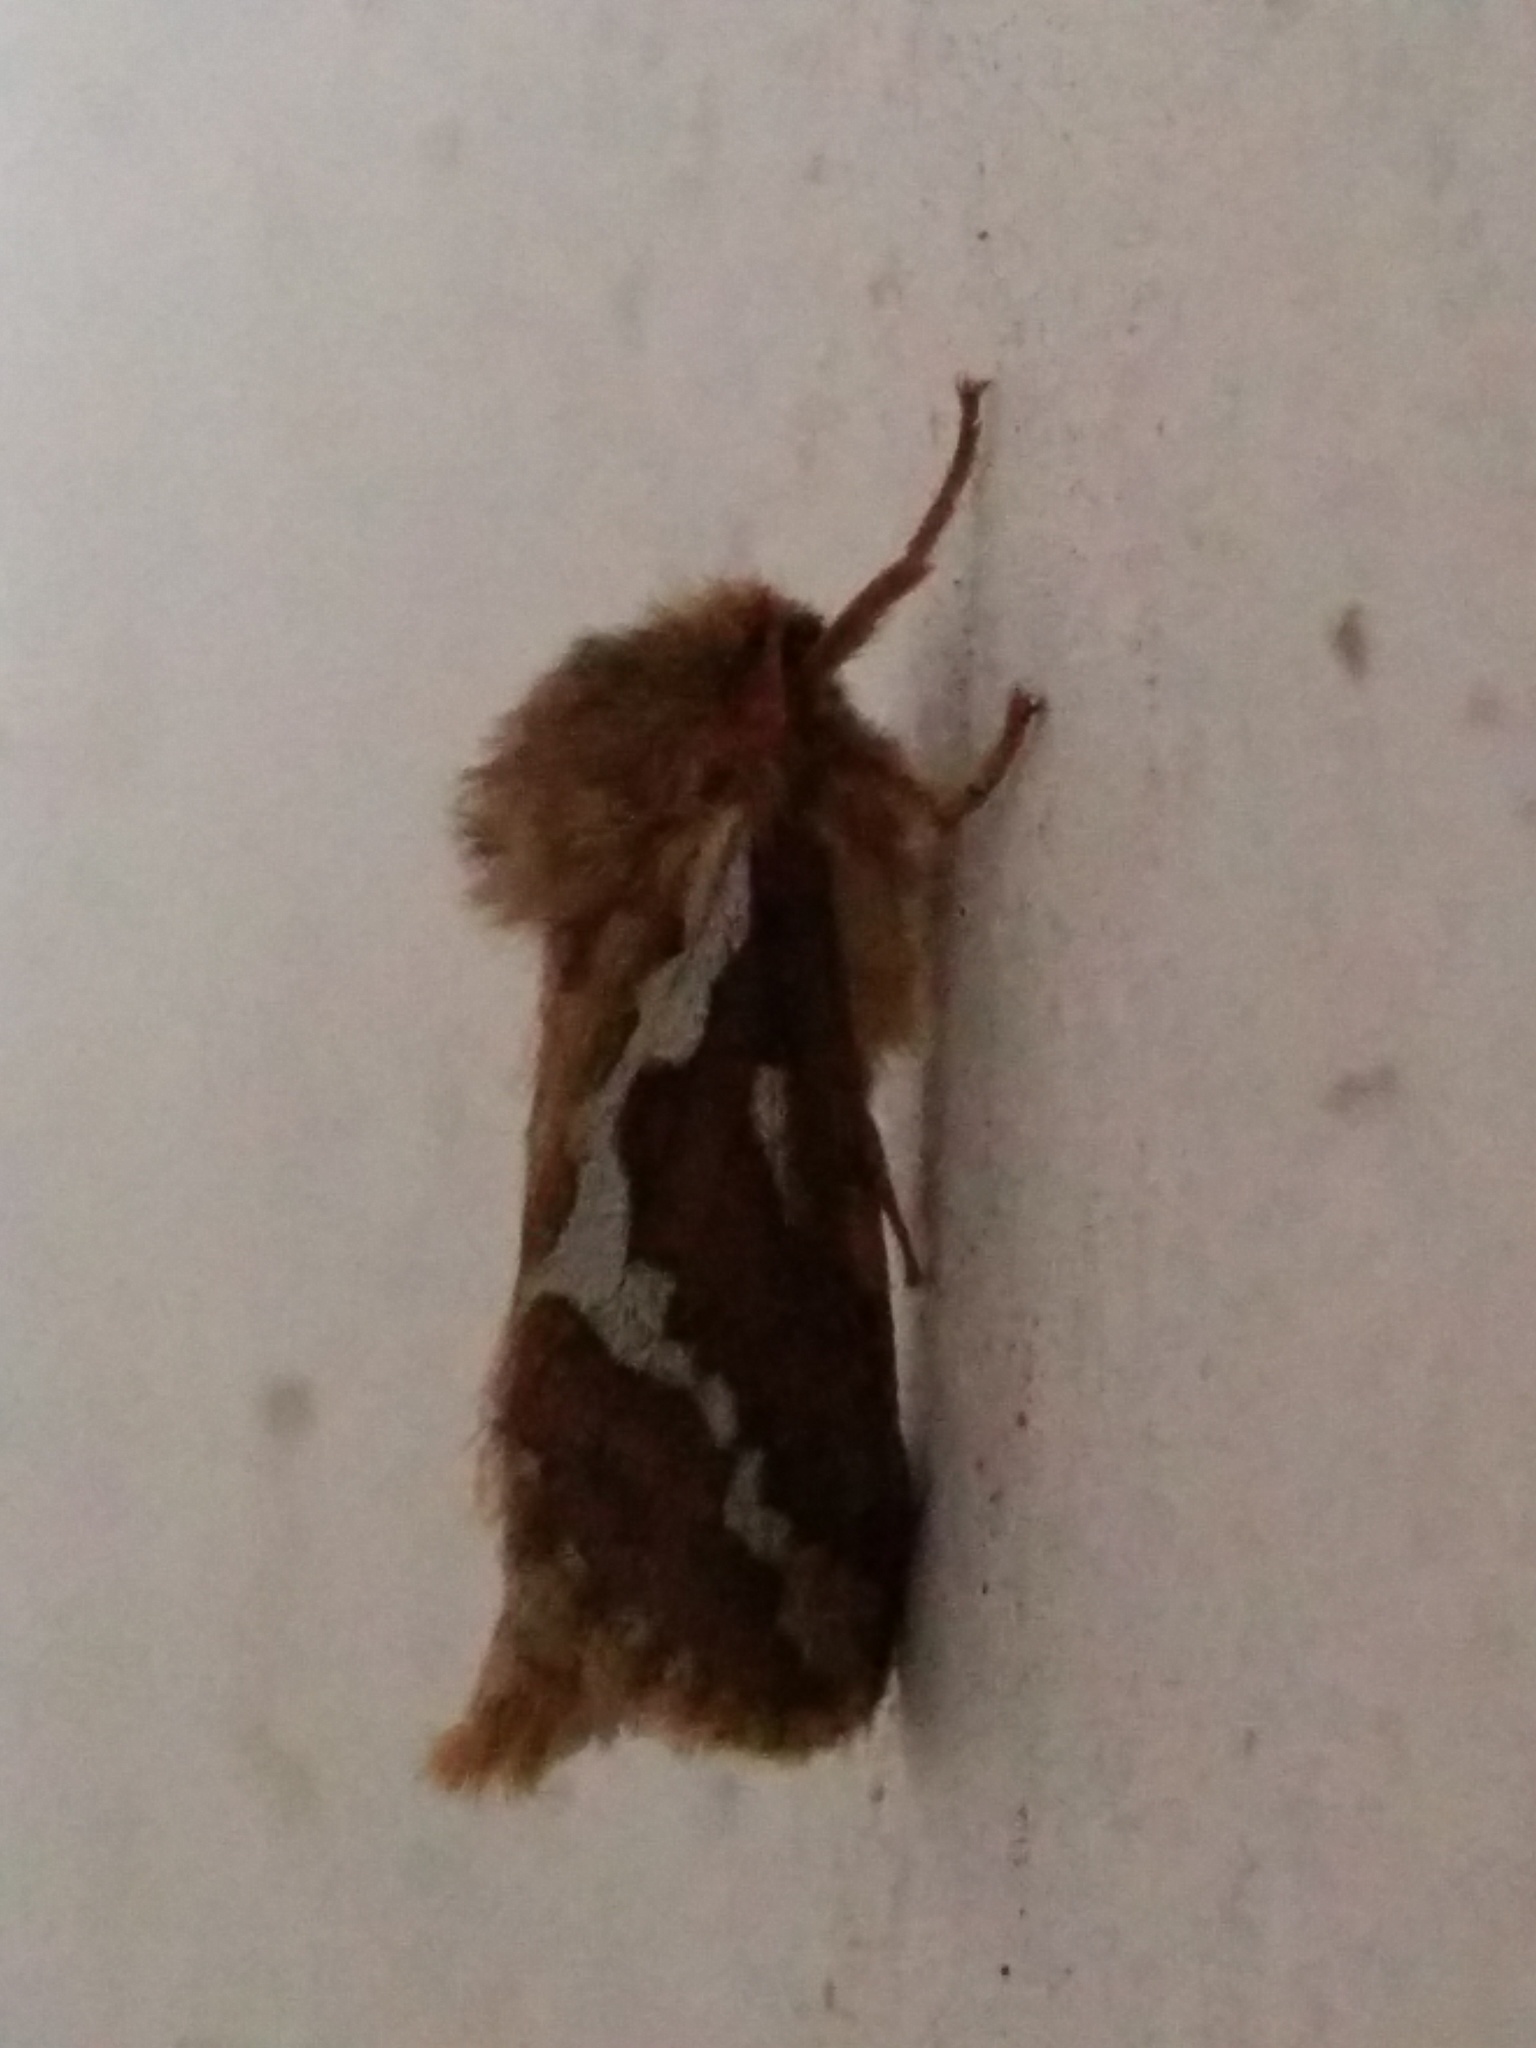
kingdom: Animalia
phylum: Arthropoda
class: Insecta
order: Lepidoptera
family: Hepialidae
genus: Korscheltellus
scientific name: Korscheltellus lupulina
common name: Common swift
